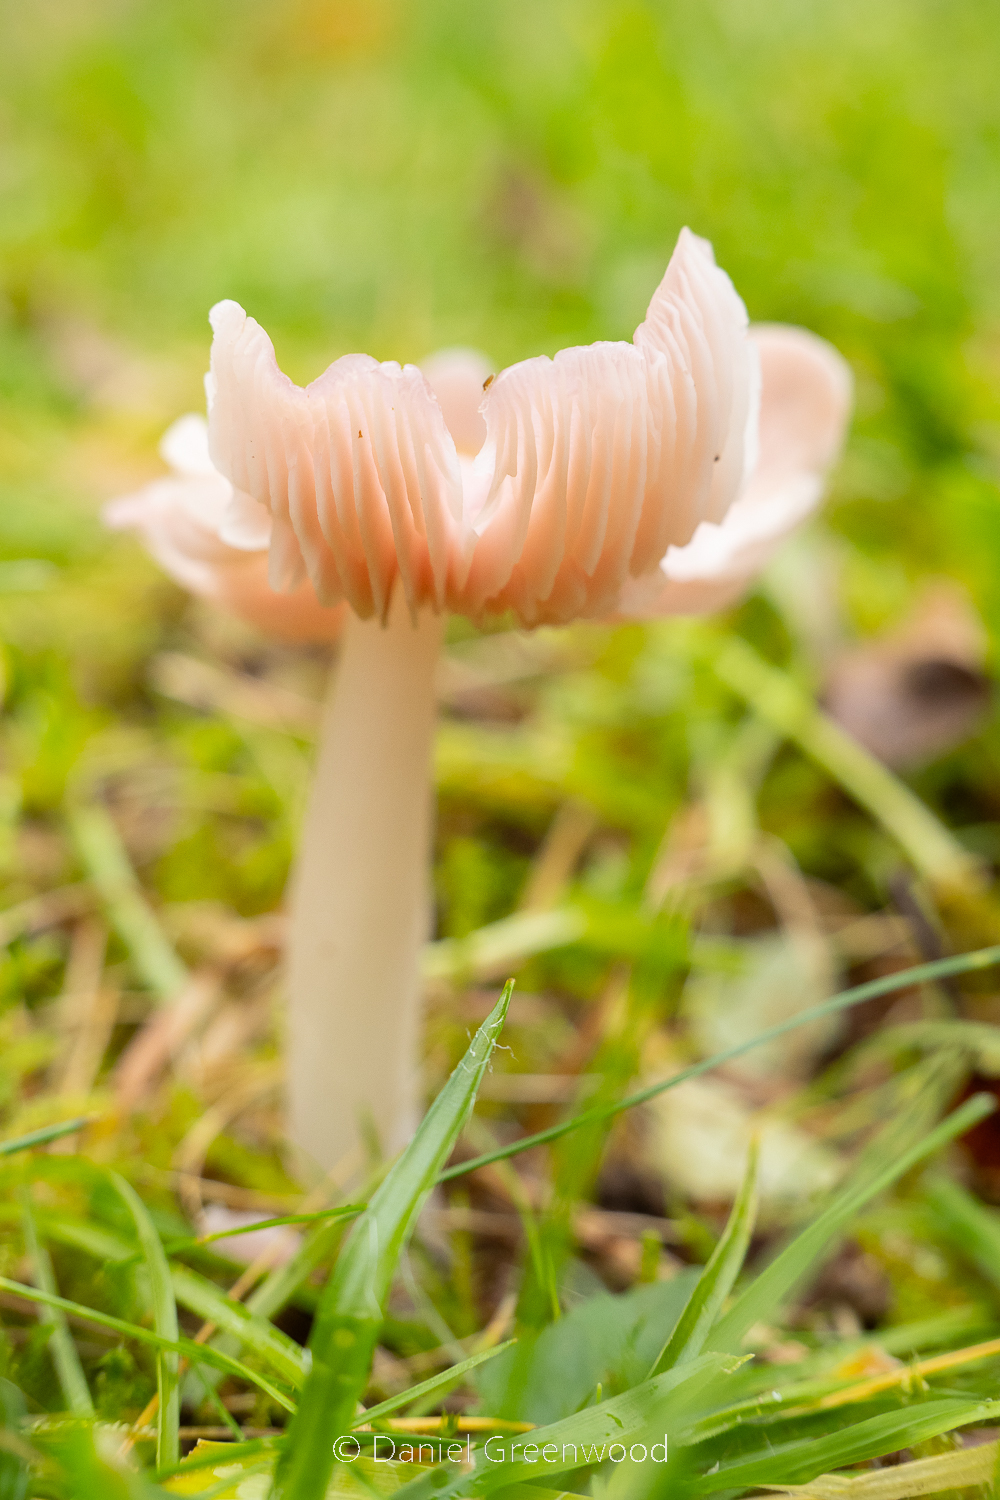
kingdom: Fungi
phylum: Basidiomycota
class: Agaricomycetes
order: Agaricales
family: Hygrophoraceae
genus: Porpolomopsis
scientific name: Porpolomopsis calyptriformis
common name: Pink waxcap
